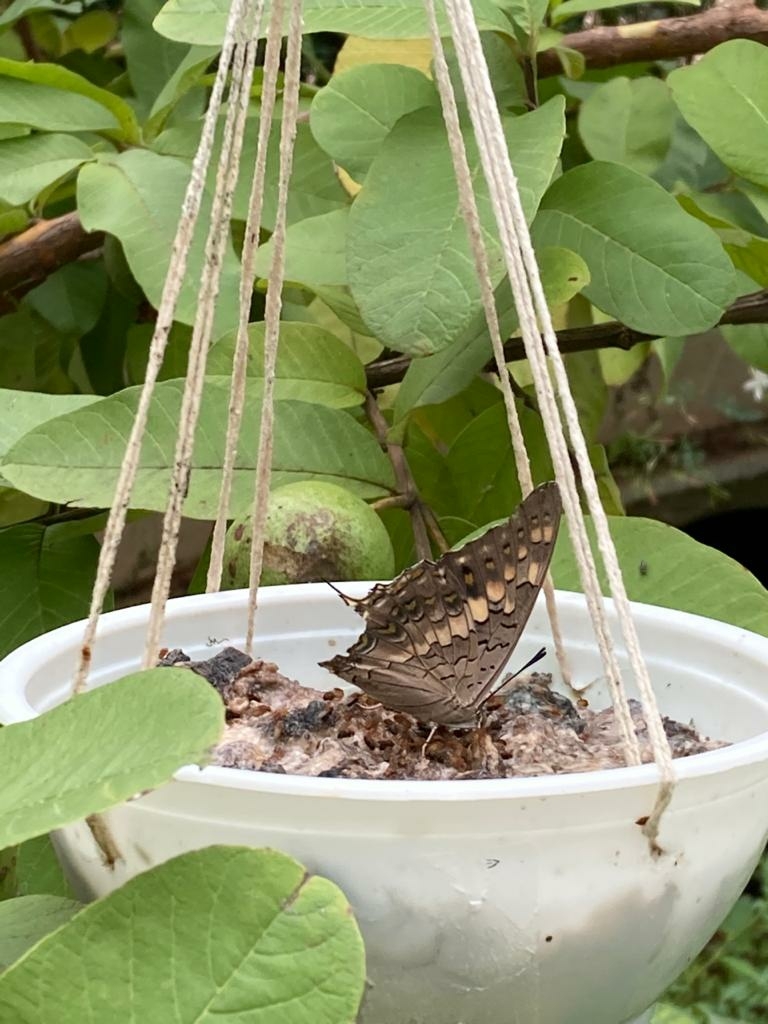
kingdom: Animalia
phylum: Arthropoda
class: Insecta
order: Lepidoptera
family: Nymphalidae
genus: Charaxes
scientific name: Charaxes solon
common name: Black rajah
